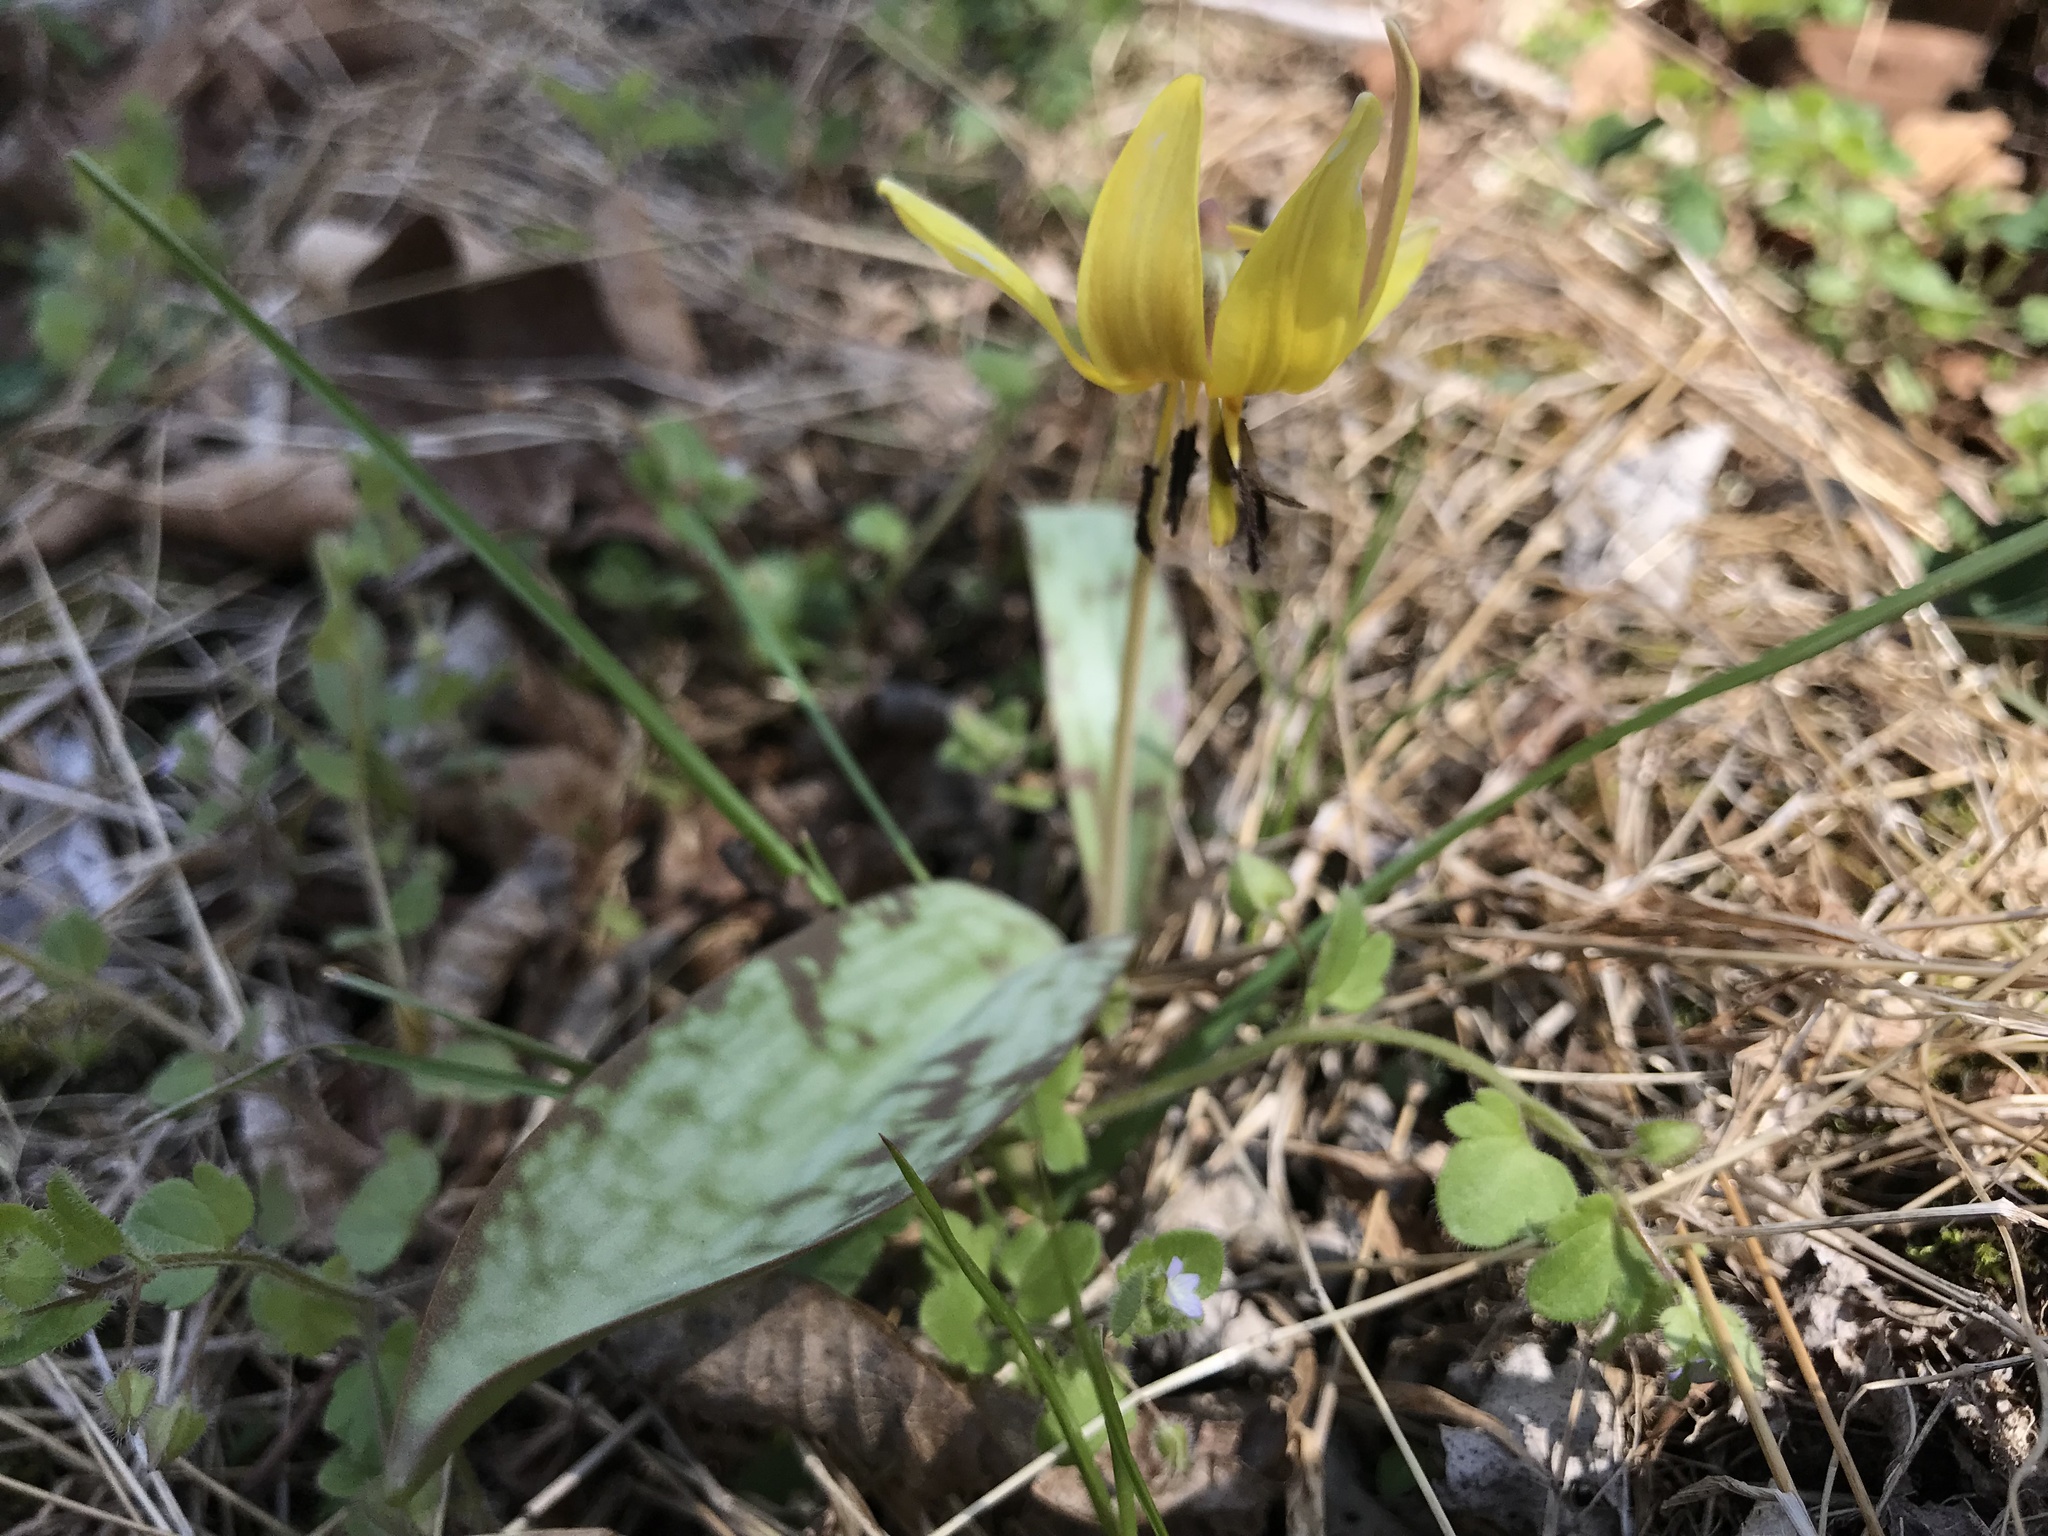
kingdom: Plantae
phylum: Tracheophyta
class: Liliopsida
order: Liliales
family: Liliaceae
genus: Erythronium
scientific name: Erythronium americanum
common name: Yellow adder's-tongue
